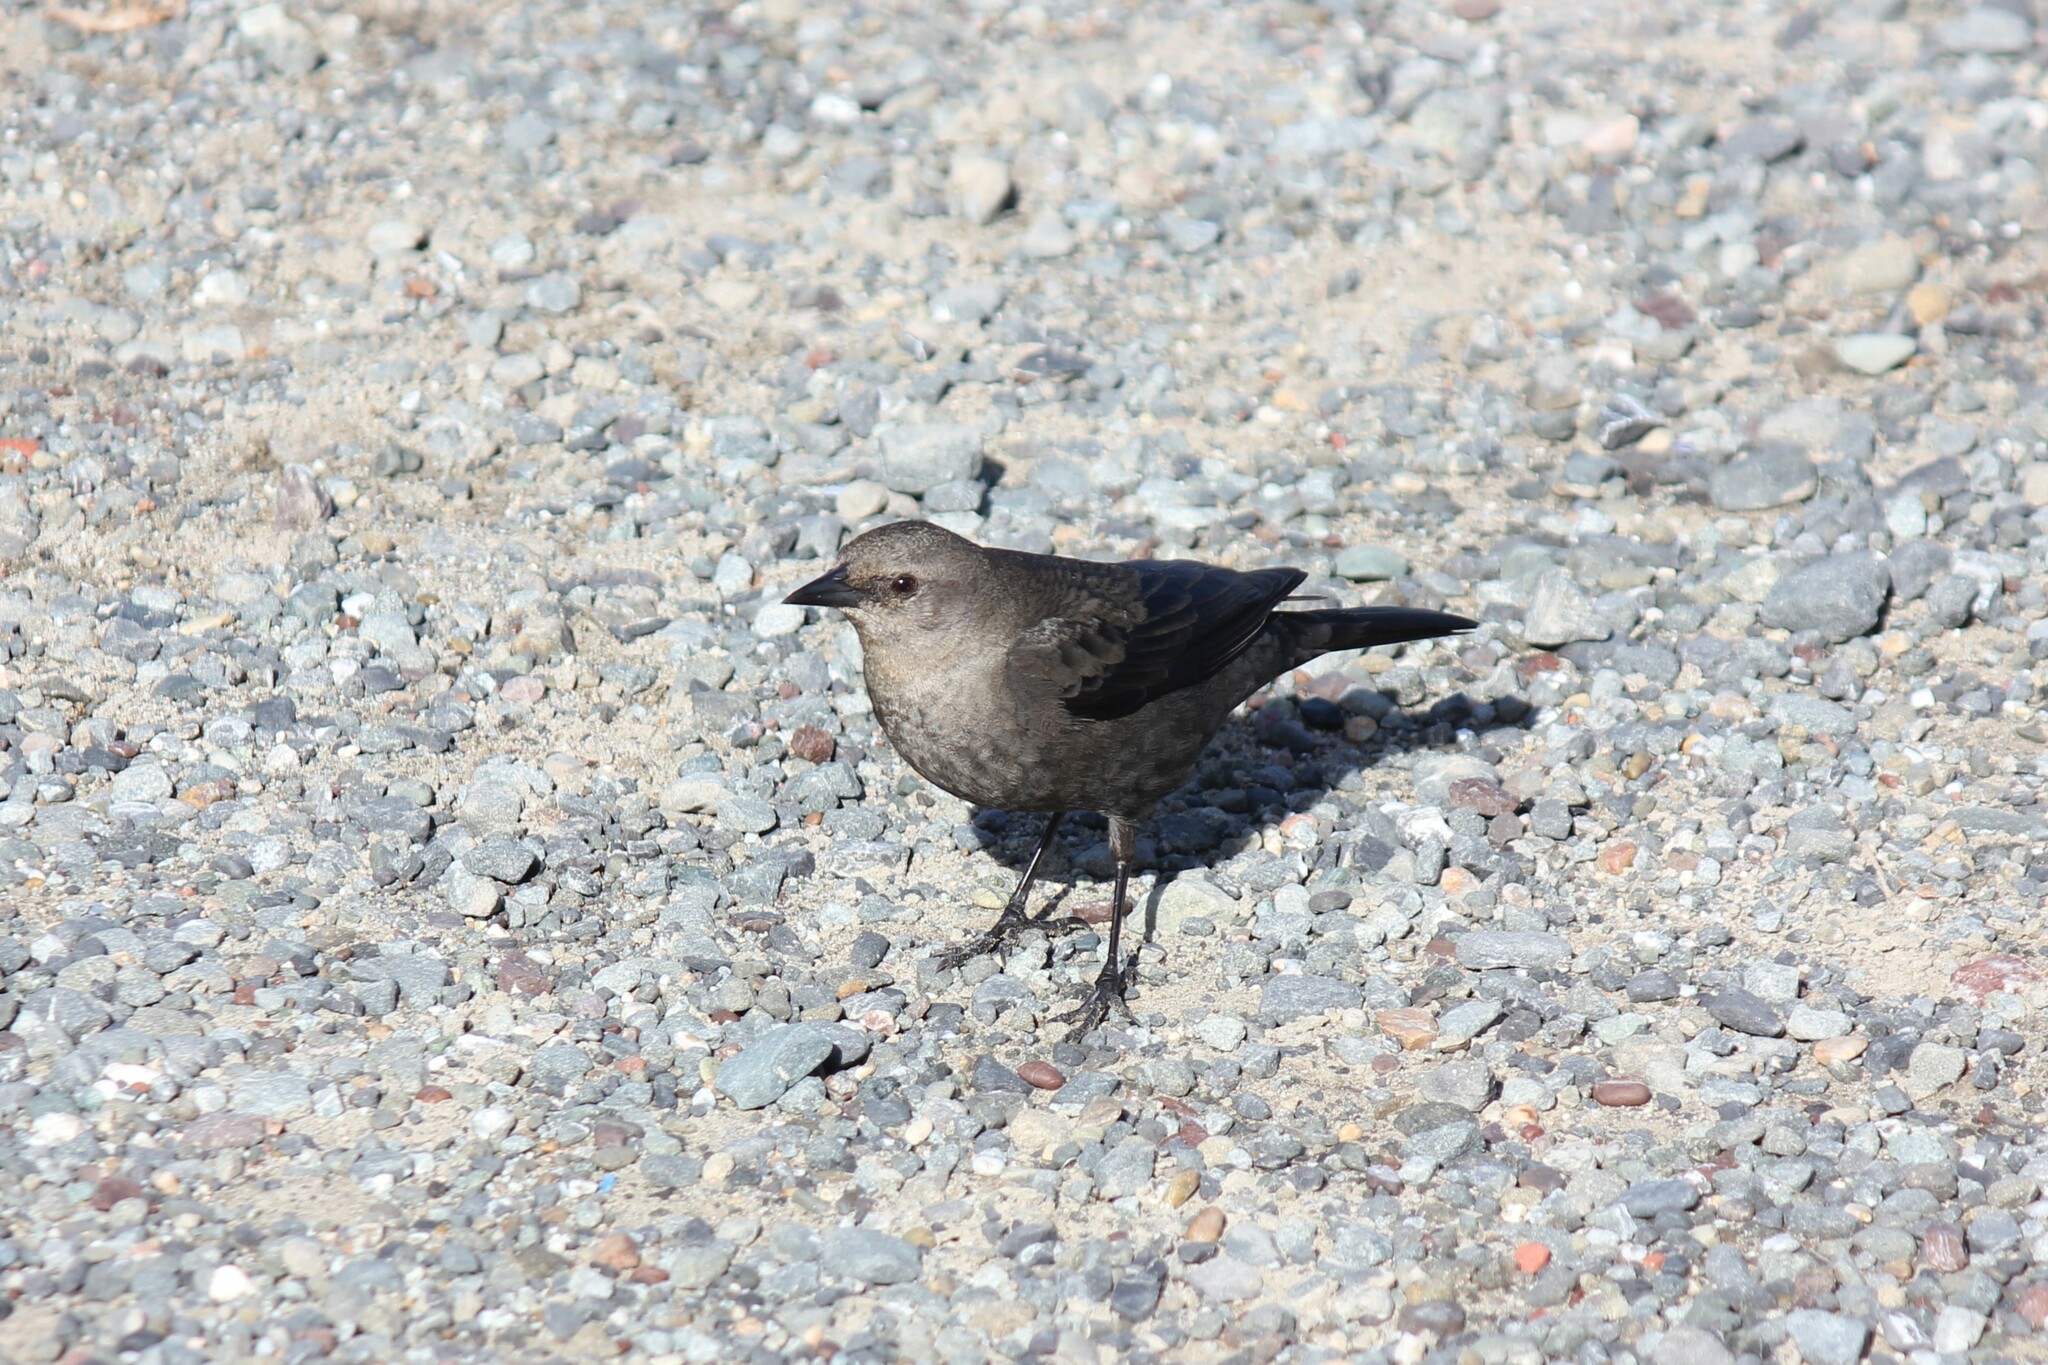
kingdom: Animalia
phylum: Chordata
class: Aves
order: Passeriformes
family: Icteridae
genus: Euphagus
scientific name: Euphagus cyanocephalus
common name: Brewer's blackbird
